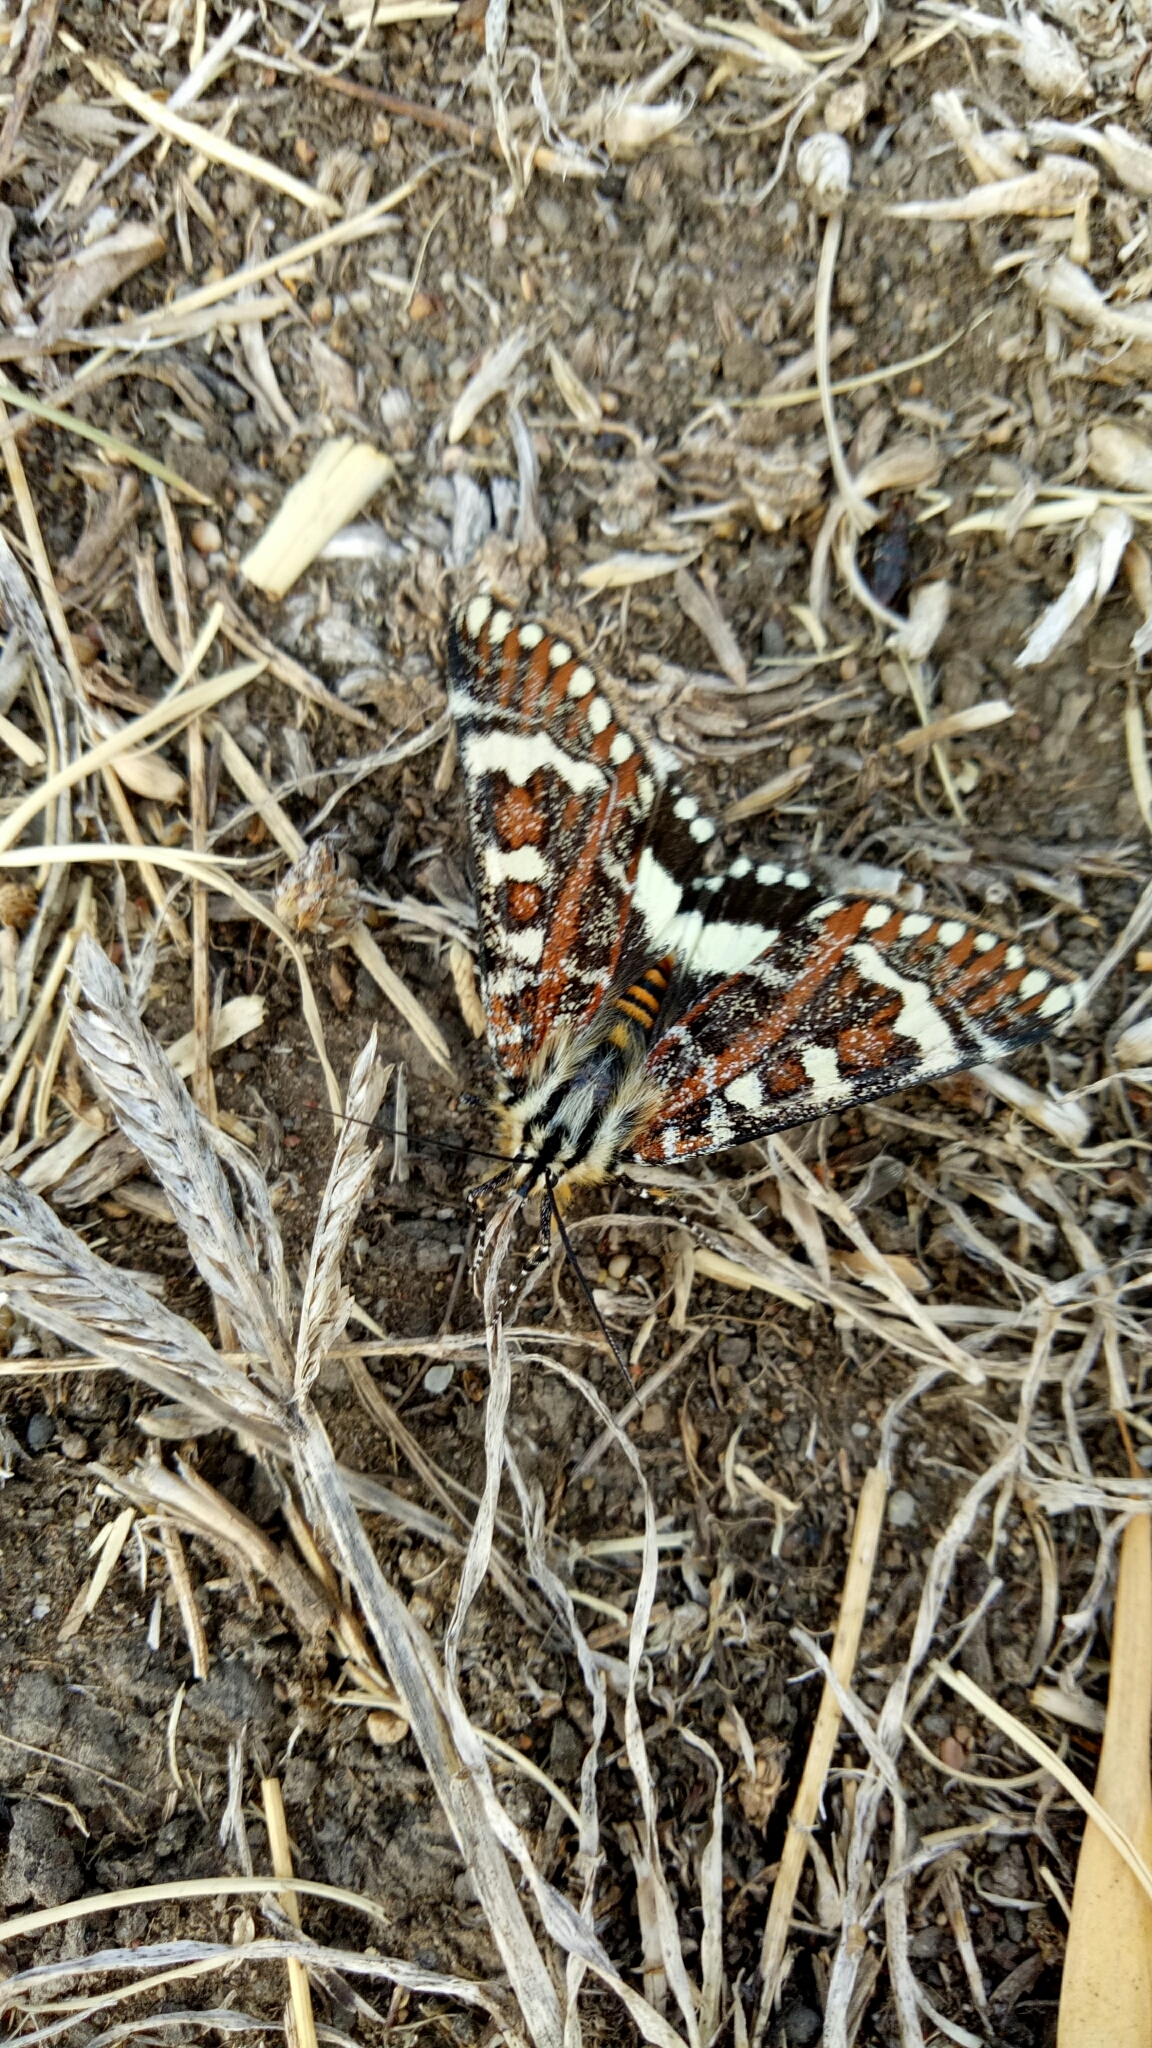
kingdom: Animalia
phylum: Arthropoda
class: Insecta
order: Lepidoptera
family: Noctuidae
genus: Apina
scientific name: Apina callisto
